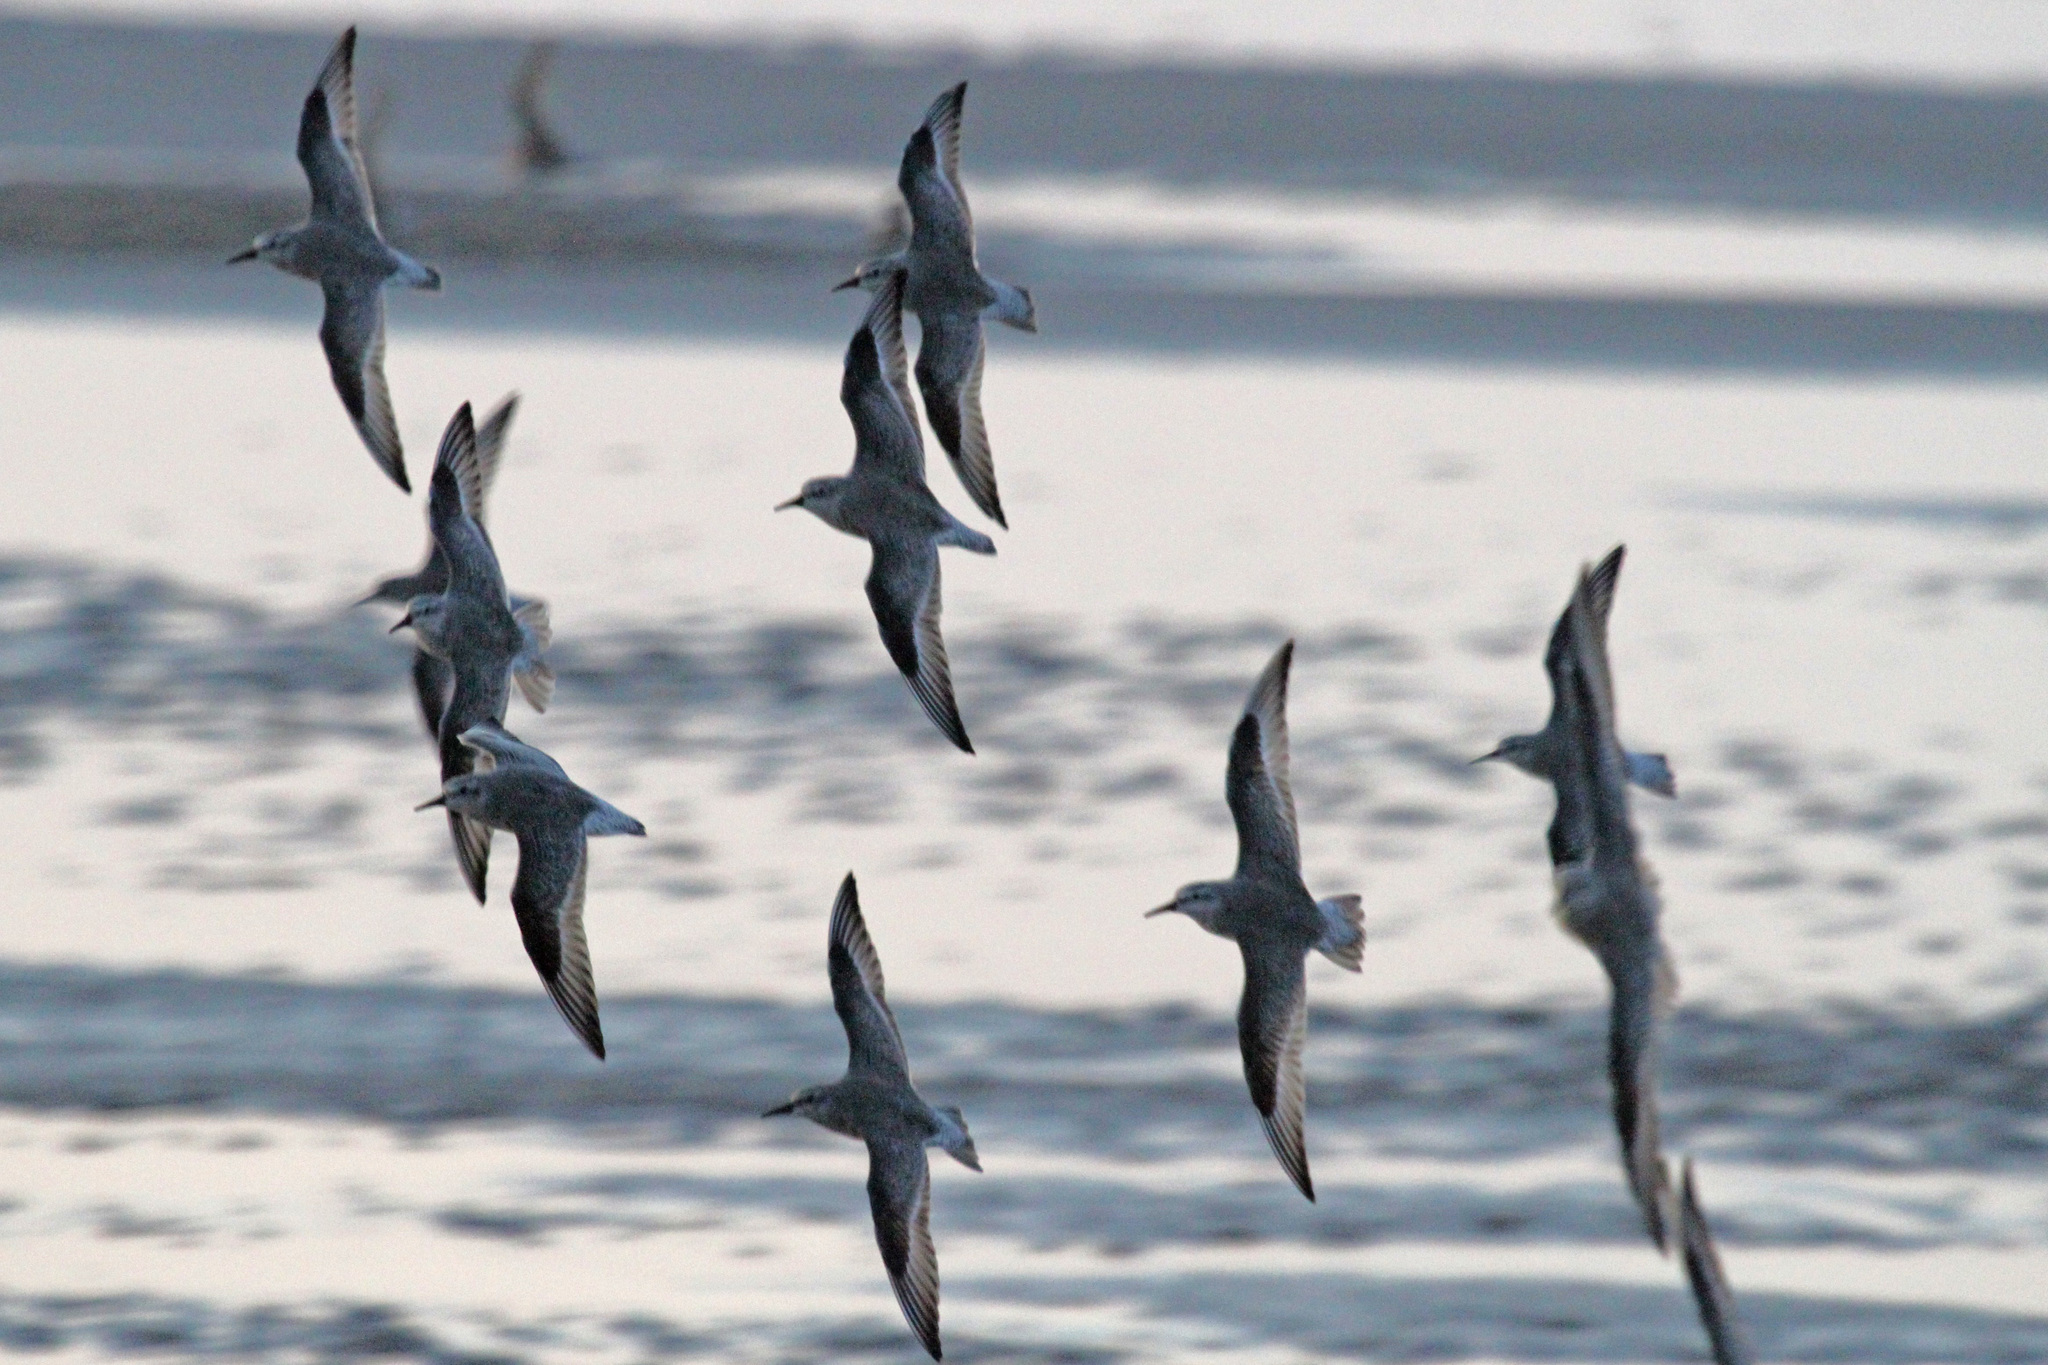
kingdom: Animalia
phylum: Chordata
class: Aves
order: Charadriiformes
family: Scolopacidae
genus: Calidris
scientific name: Calidris canutus
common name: Red knot
